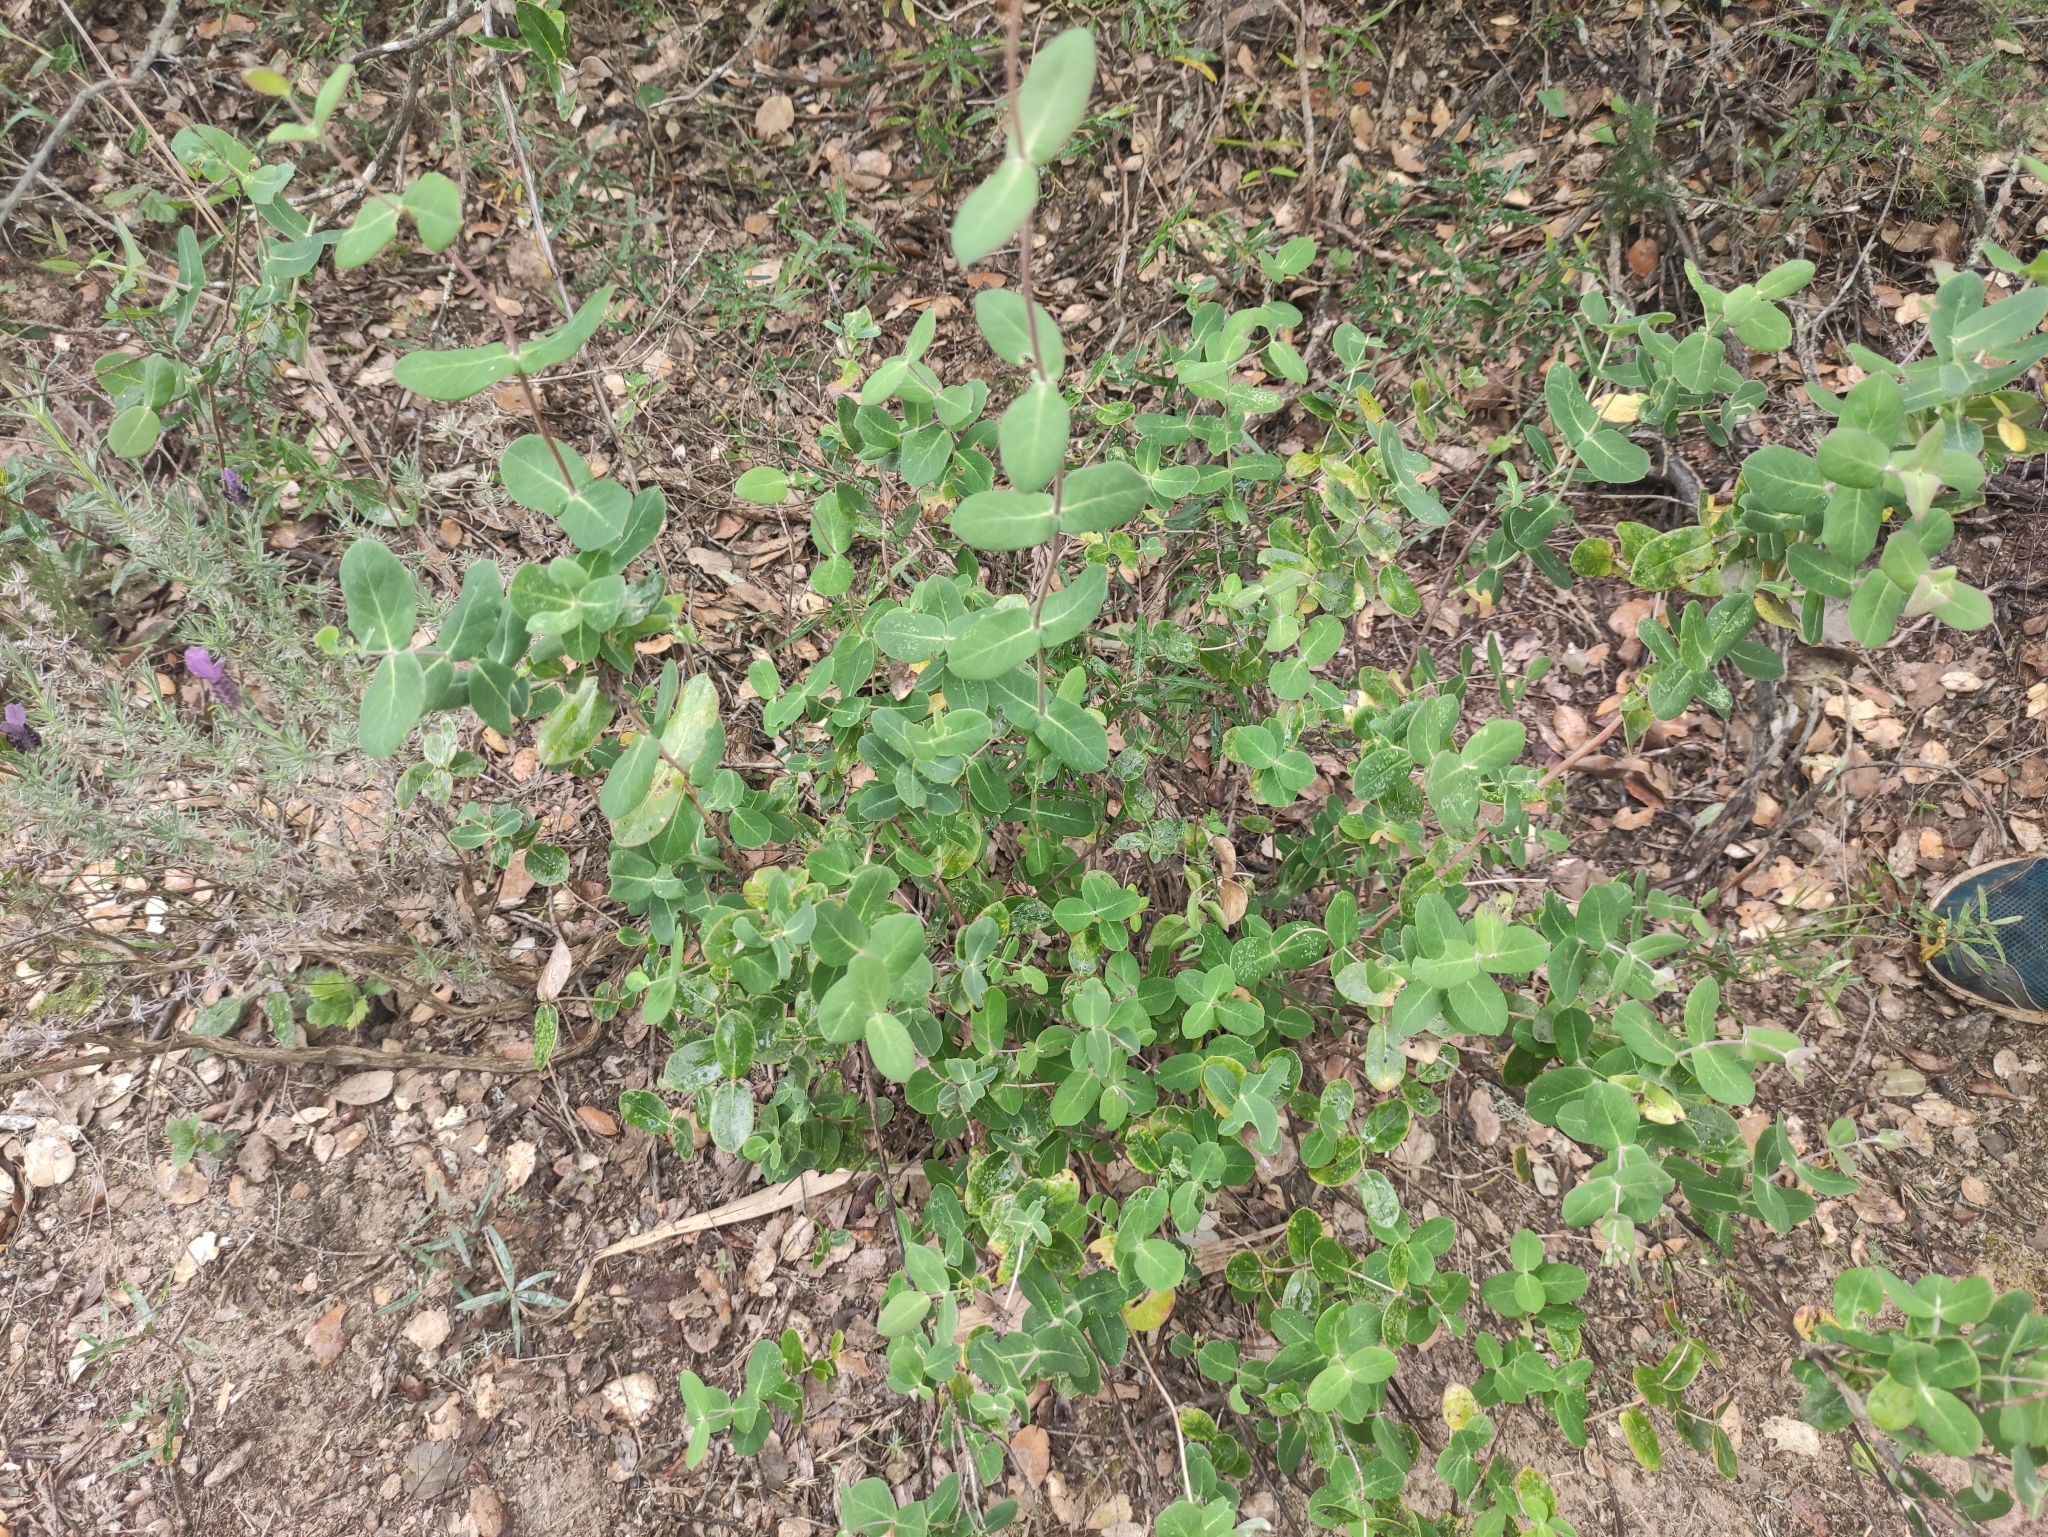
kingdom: Plantae
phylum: Tracheophyta
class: Magnoliopsida
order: Dipsacales
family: Caprifoliaceae
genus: Lonicera
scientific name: Lonicera implexa
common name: Minorca honeysuckle
